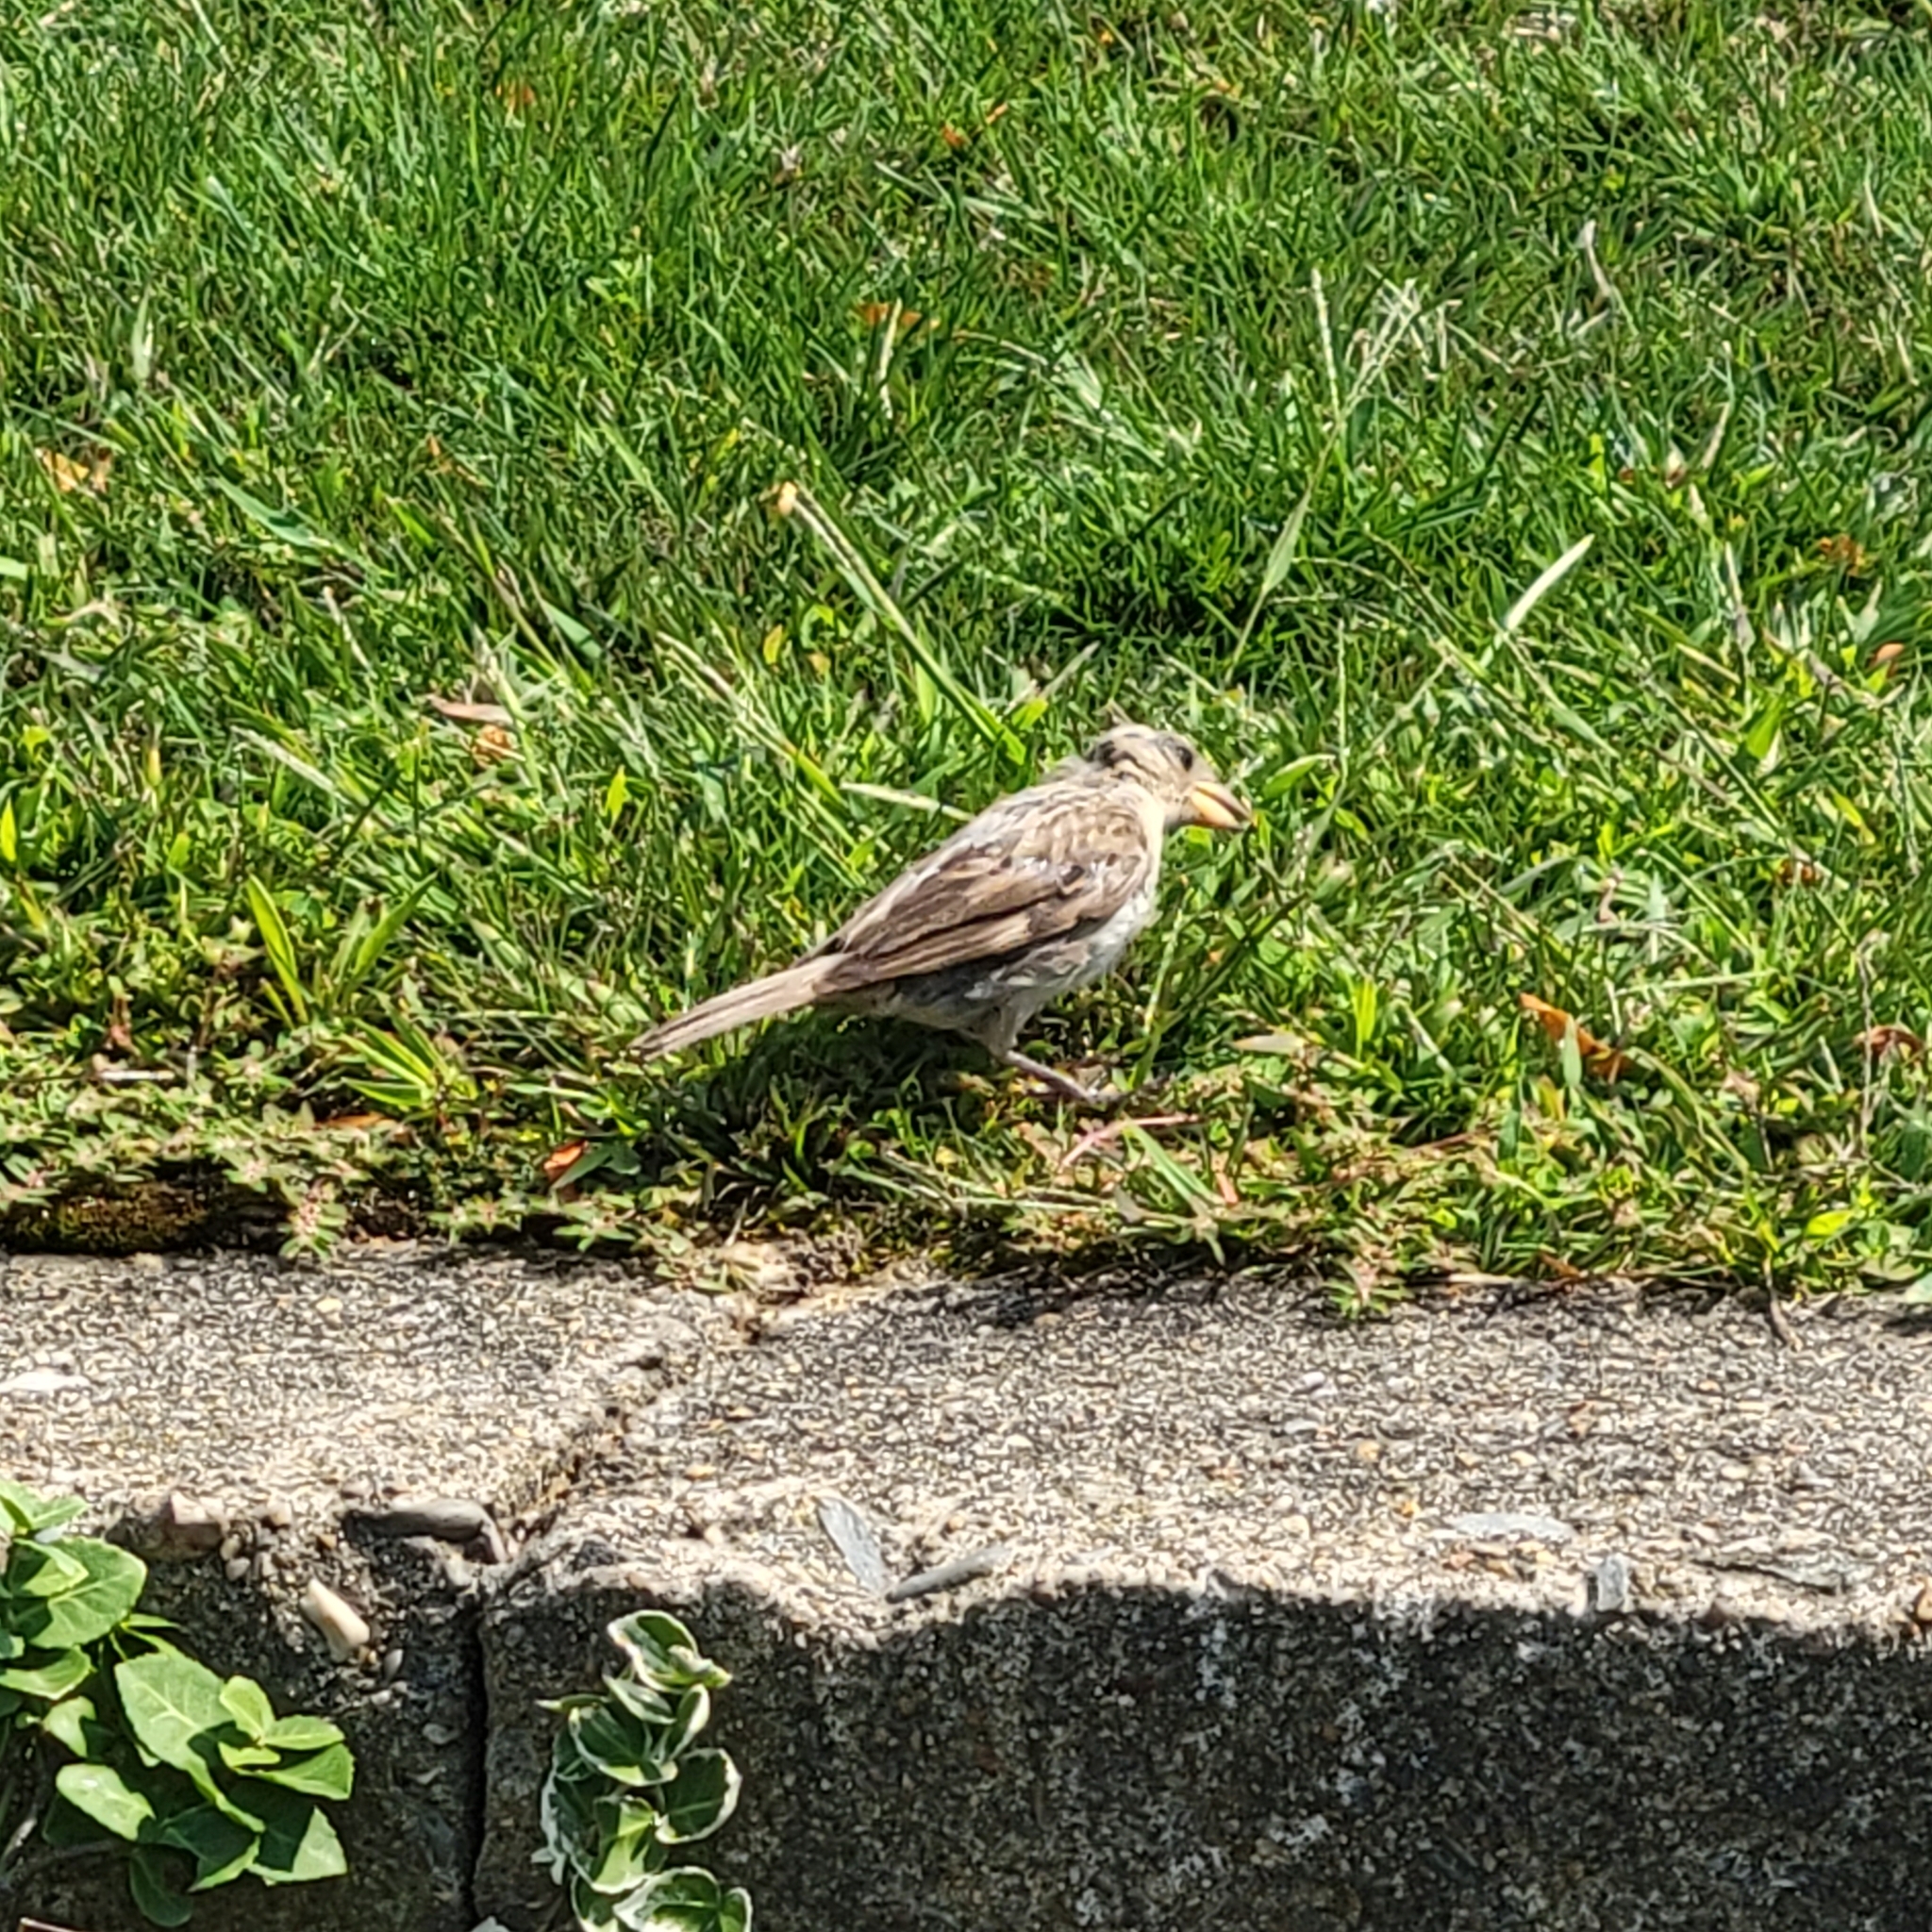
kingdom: Animalia
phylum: Chordata
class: Aves
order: Passeriformes
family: Passeridae
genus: Passer
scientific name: Passer domesticus
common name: House sparrow
